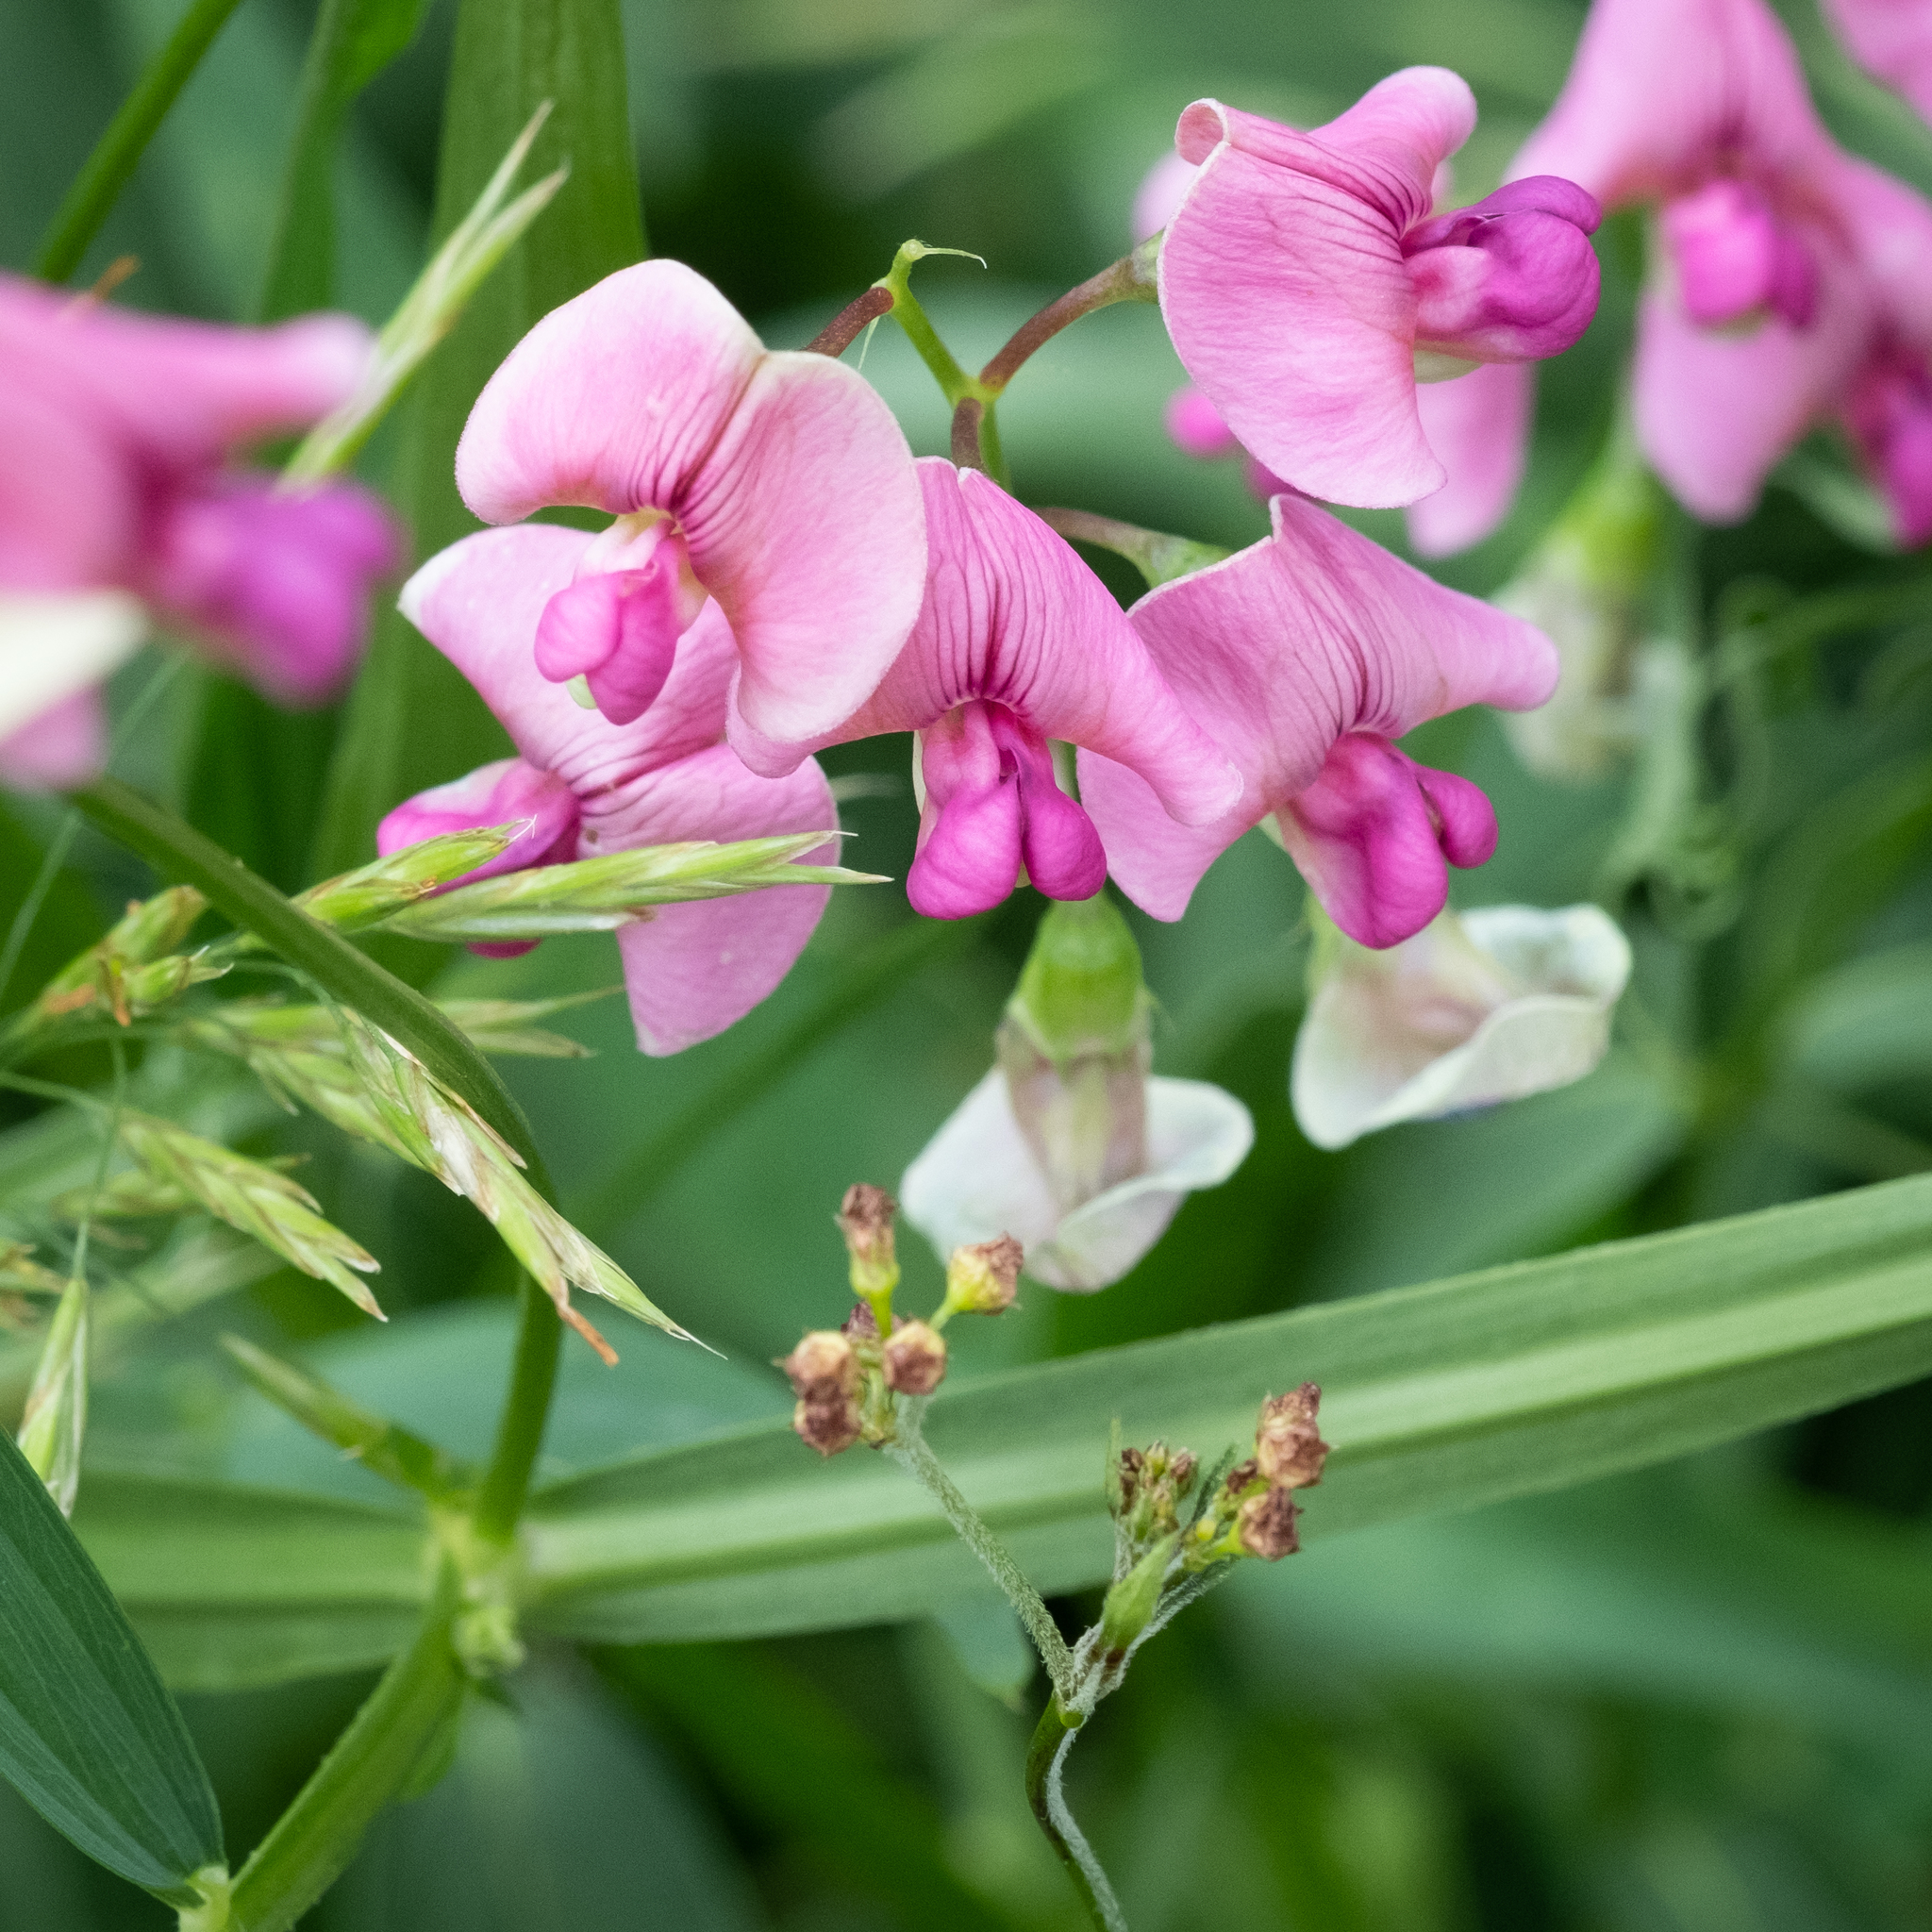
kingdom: Plantae
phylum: Tracheophyta
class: Magnoliopsida
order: Fabales
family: Fabaceae
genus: Lathyrus
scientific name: Lathyrus sylvestris
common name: Flat pea
